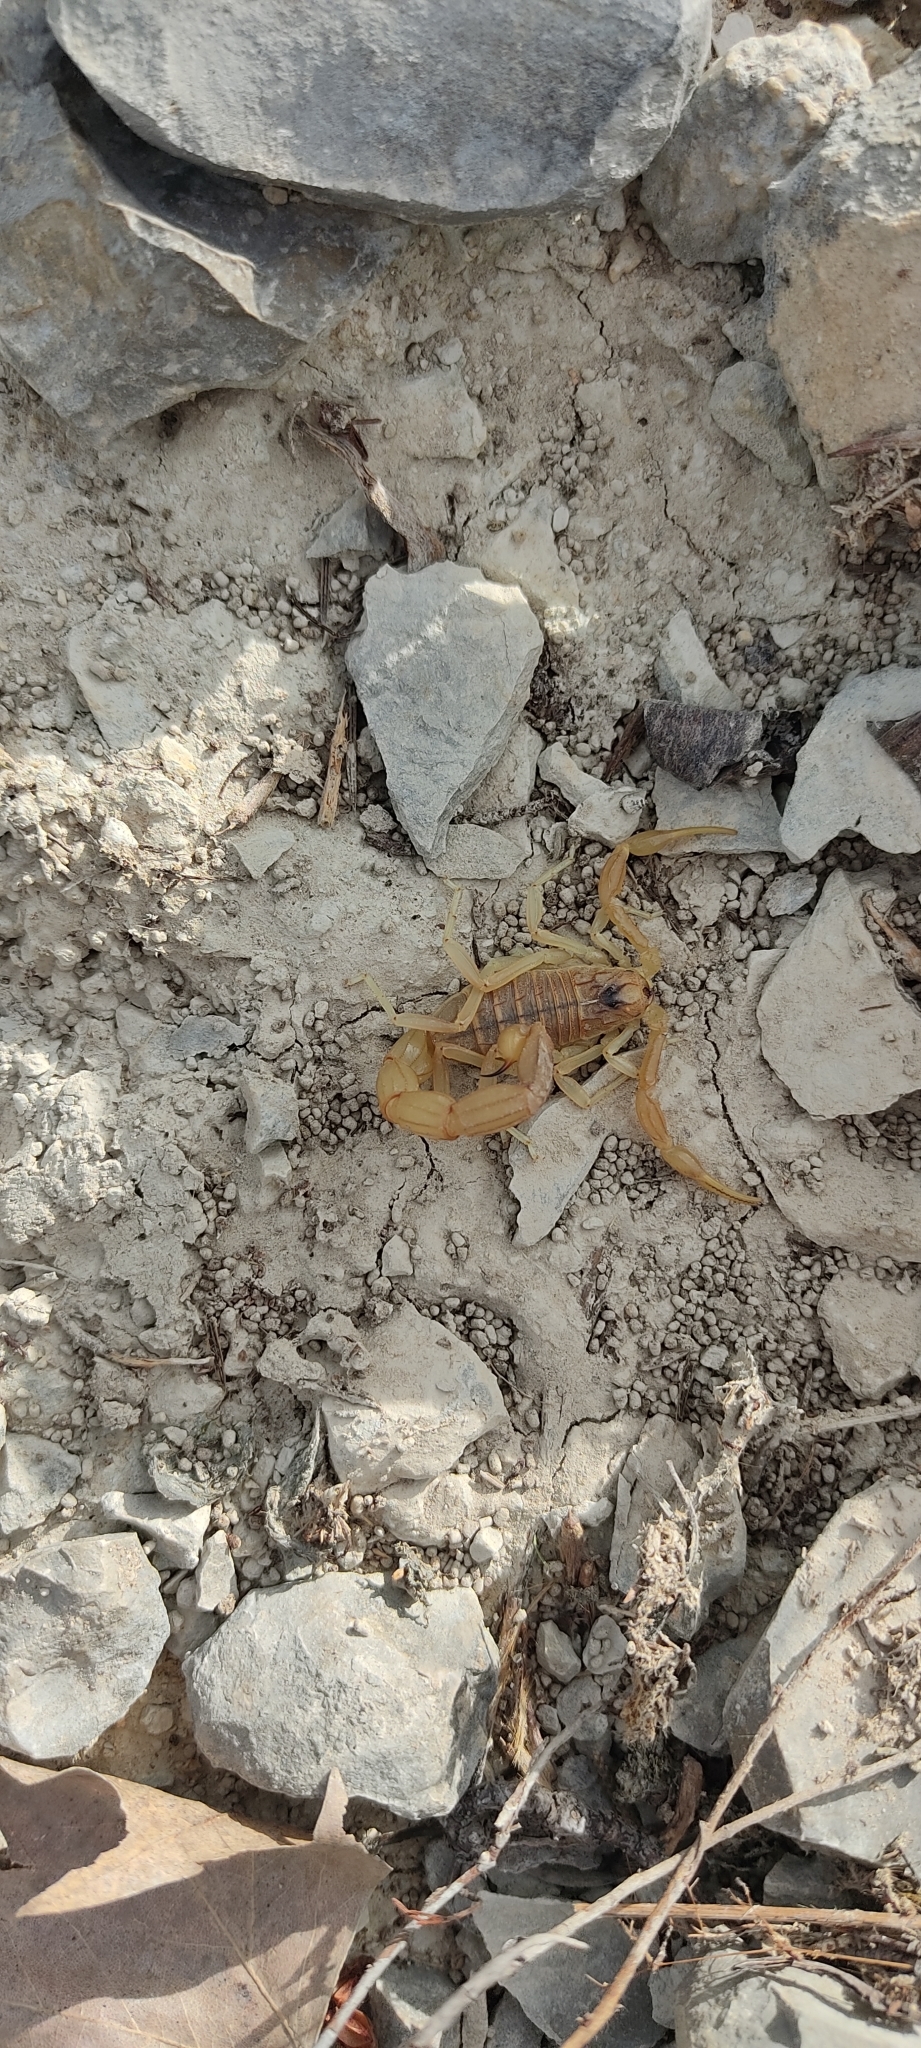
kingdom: Animalia
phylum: Arthropoda
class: Arachnida
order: Scorpiones
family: Buthidae
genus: Buthus
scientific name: Buthus occitanus
